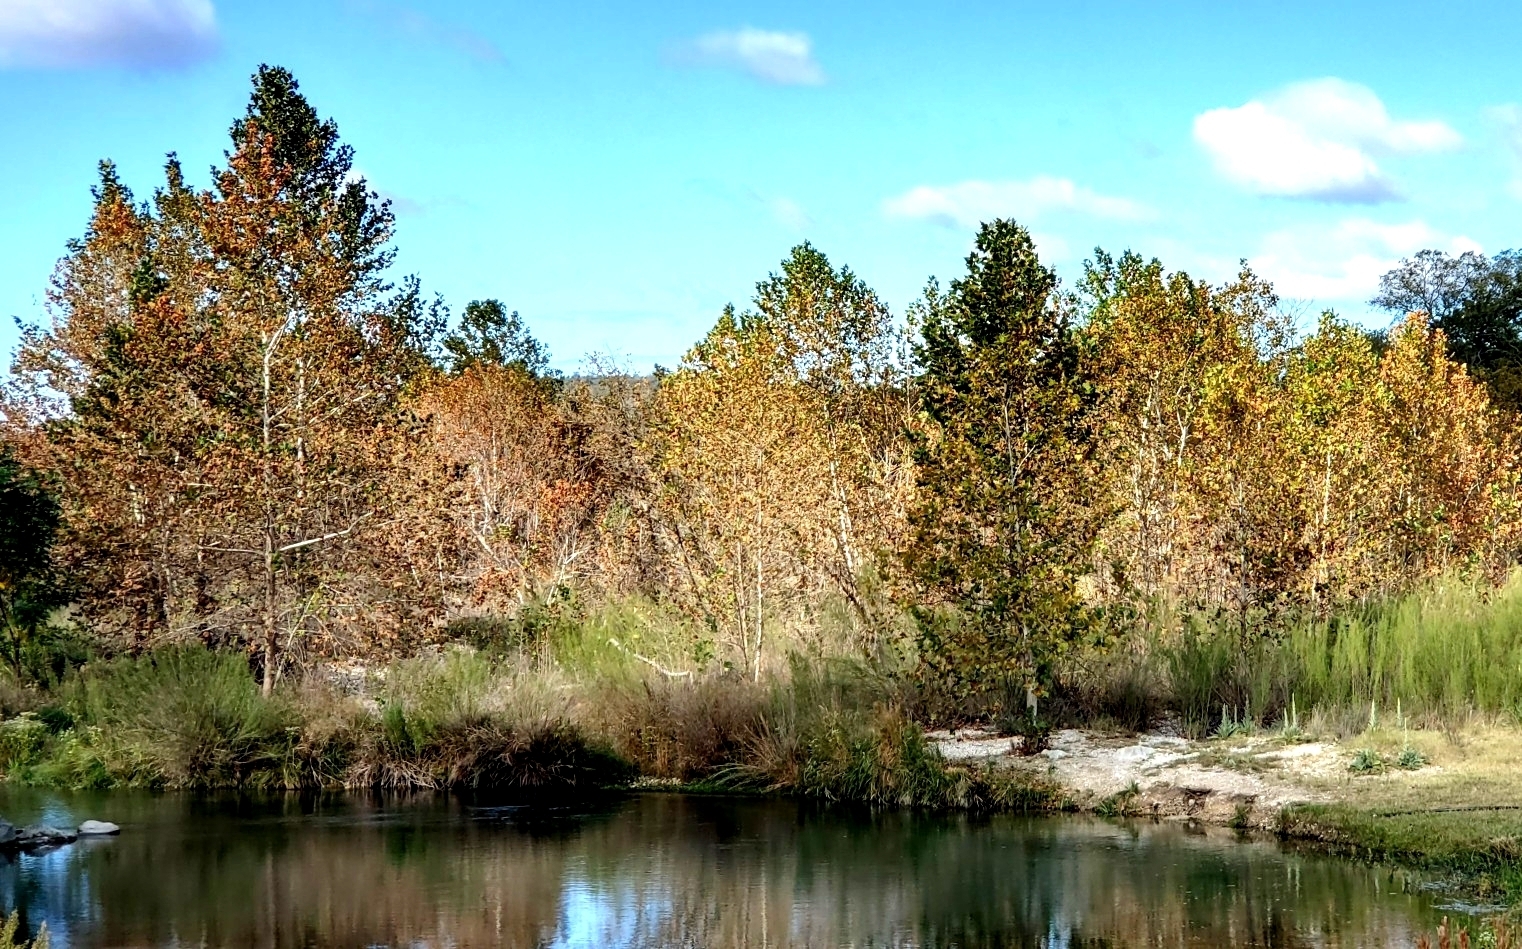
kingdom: Plantae
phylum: Tracheophyta
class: Magnoliopsida
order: Proteales
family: Platanaceae
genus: Platanus
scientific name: Platanus occidentalis
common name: American sycamore
